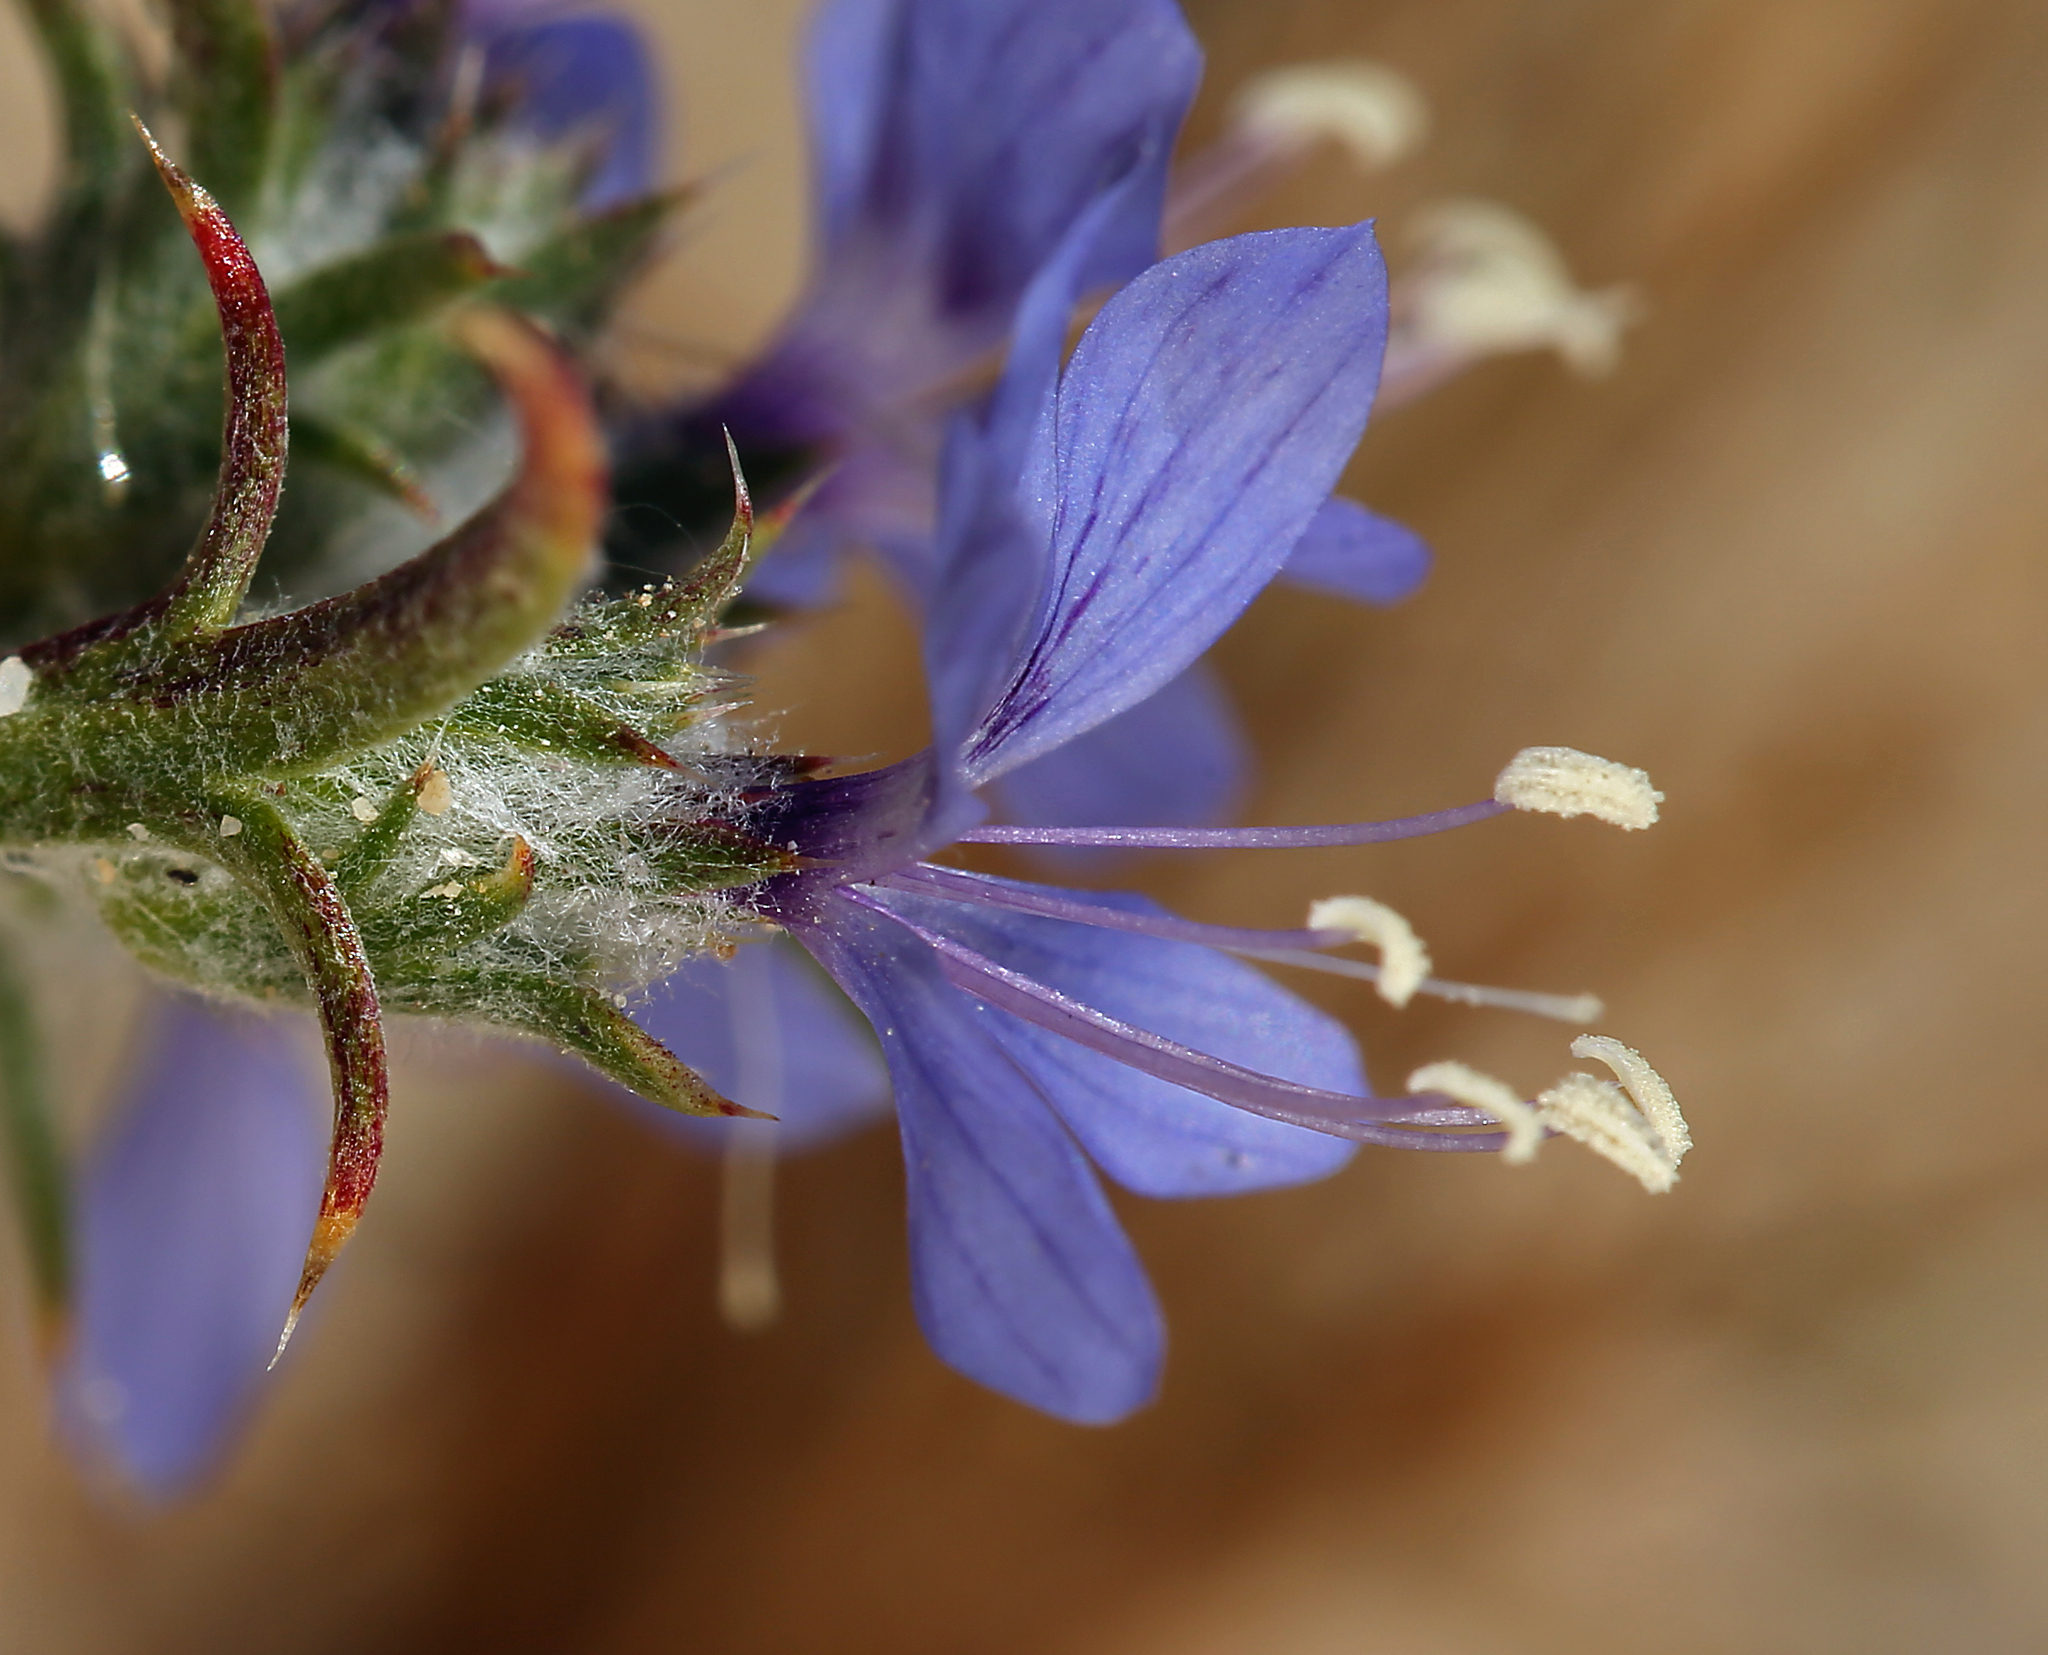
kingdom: Plantae
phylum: Tracheophyta
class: Magnoliopsida
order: Ericales
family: Polemoniaceae
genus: Eriastrum
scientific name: Eriastrum sapphirinum
